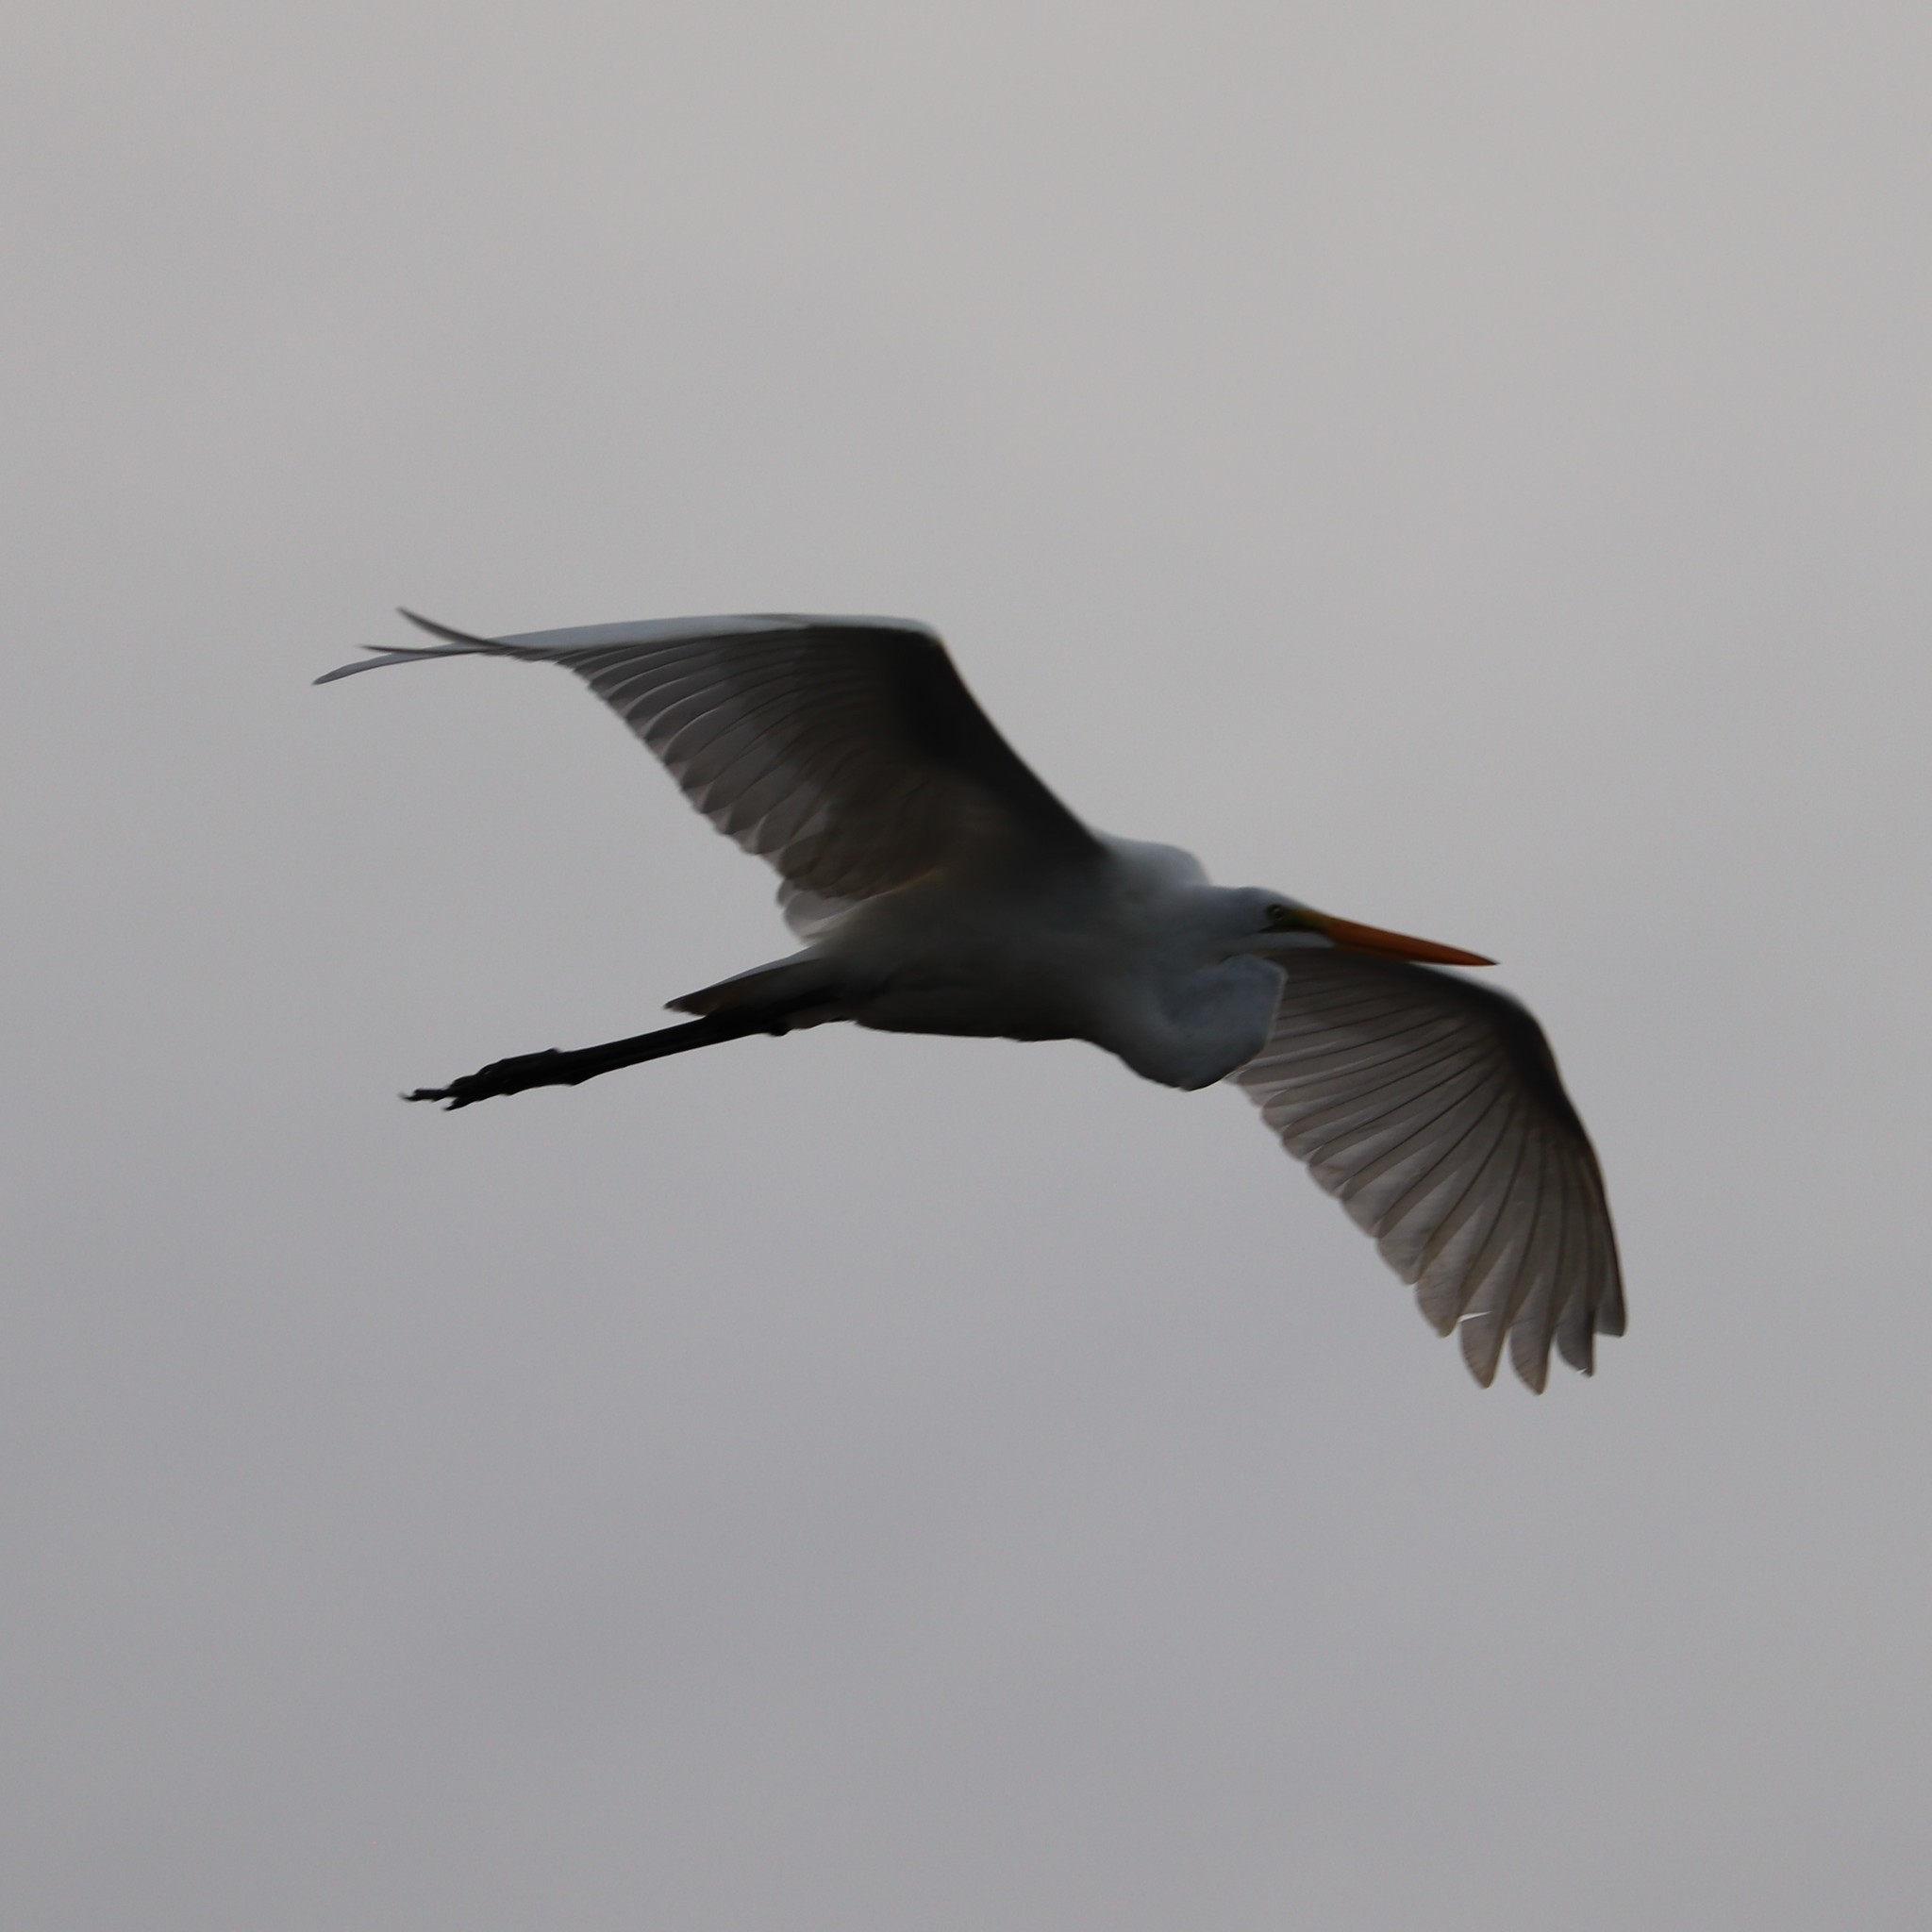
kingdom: Animalia
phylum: Chordata
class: Aves
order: Pelecaniformes
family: Ardeidae
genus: Ardea
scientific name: Ardea alba
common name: Great egret
